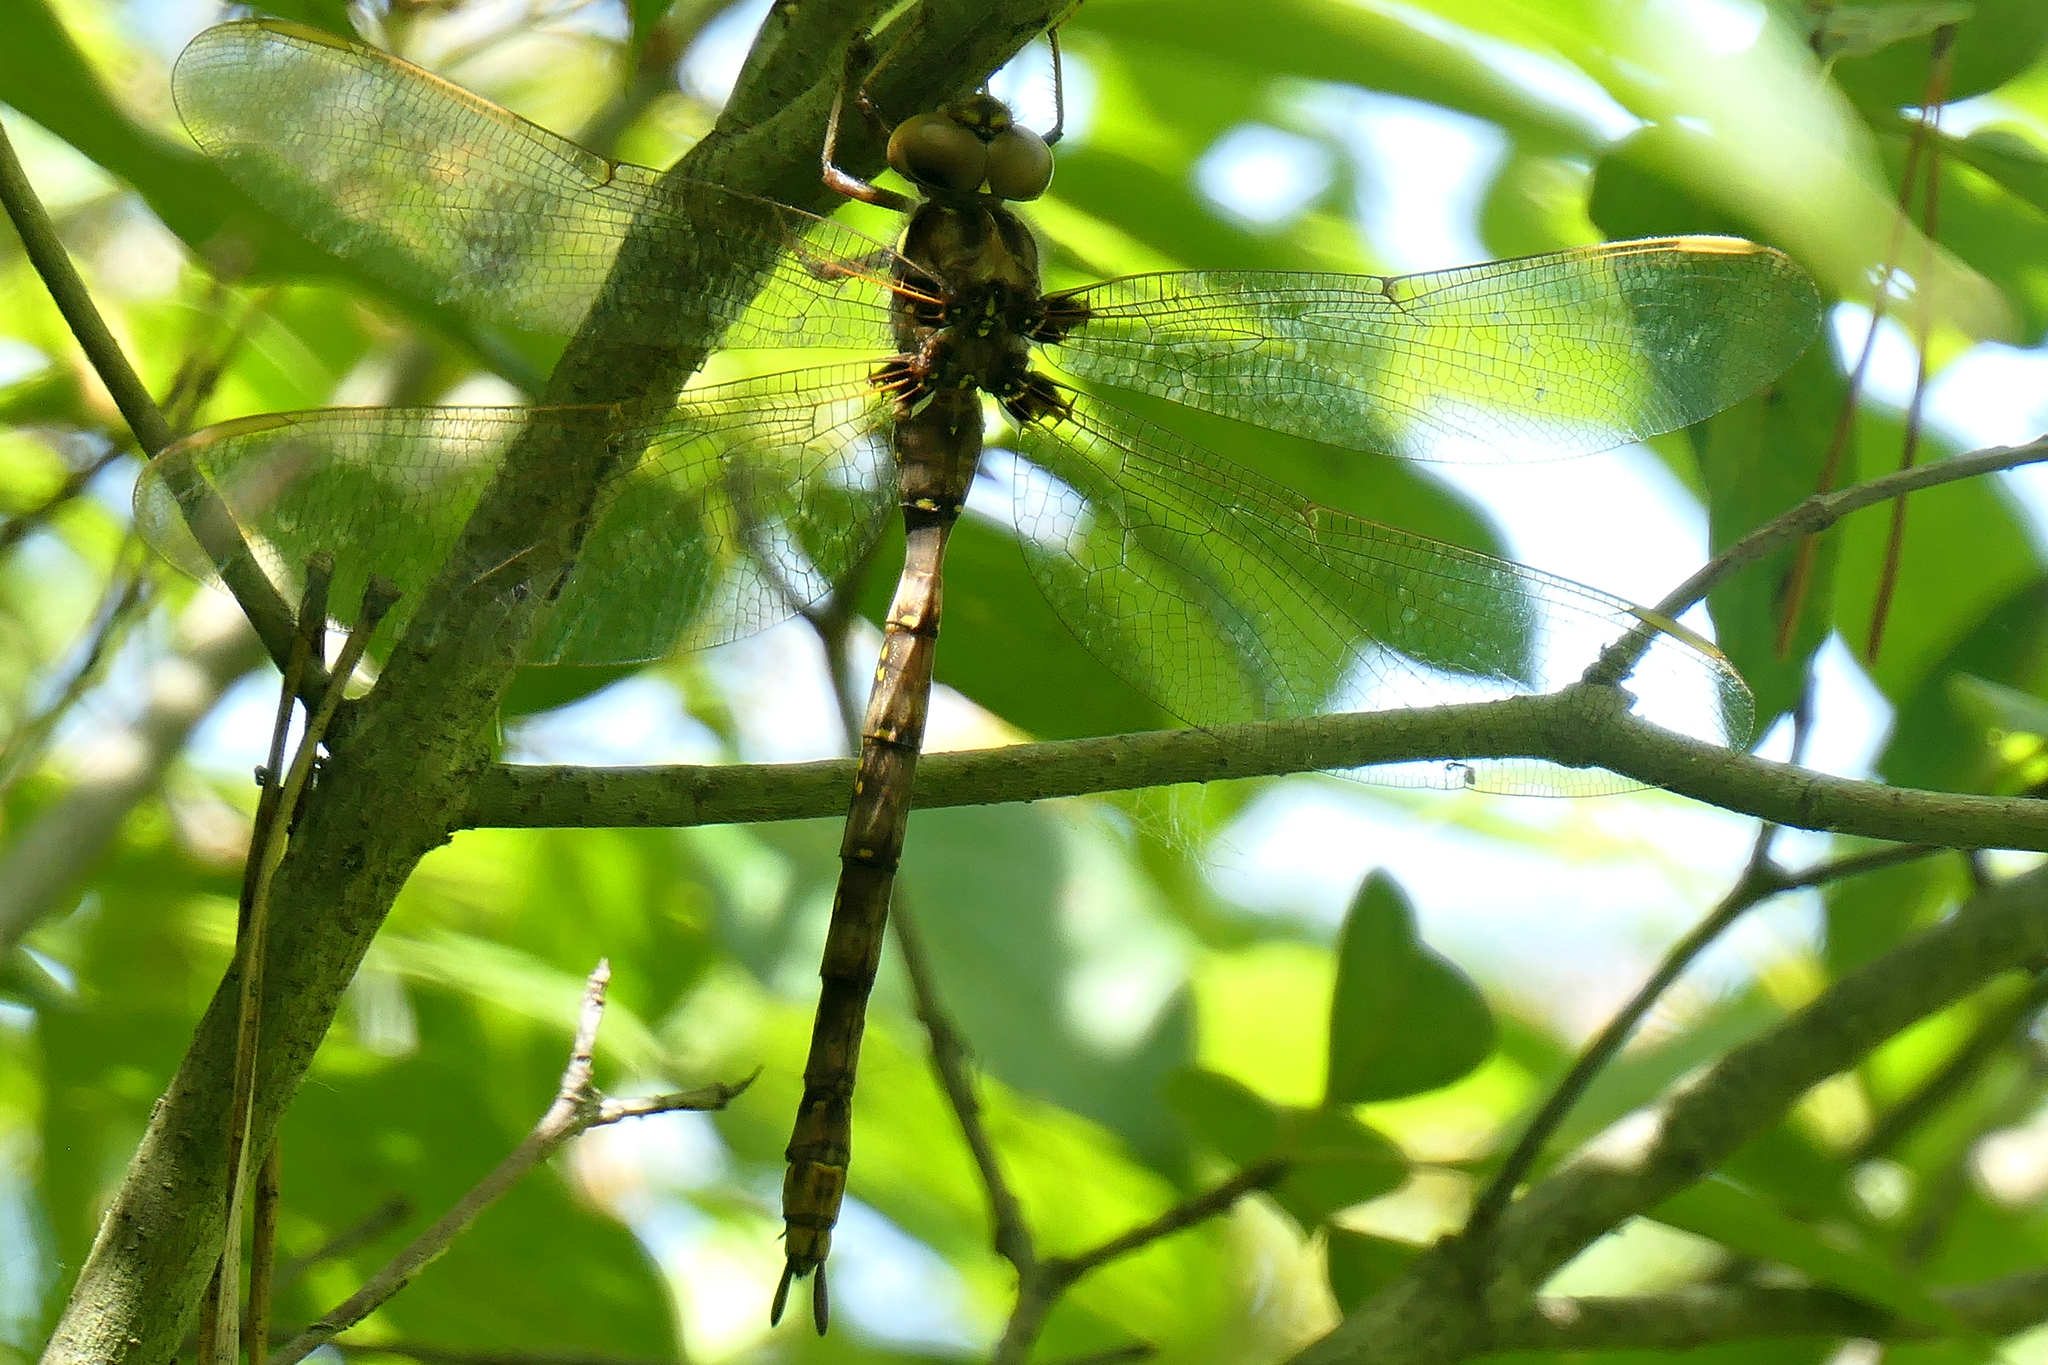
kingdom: Animalia
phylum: Arthropoda
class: Insecta
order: Odonata
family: Aeshnidae
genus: Boyeria
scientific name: Boyeria vinosa
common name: Fawn darner
